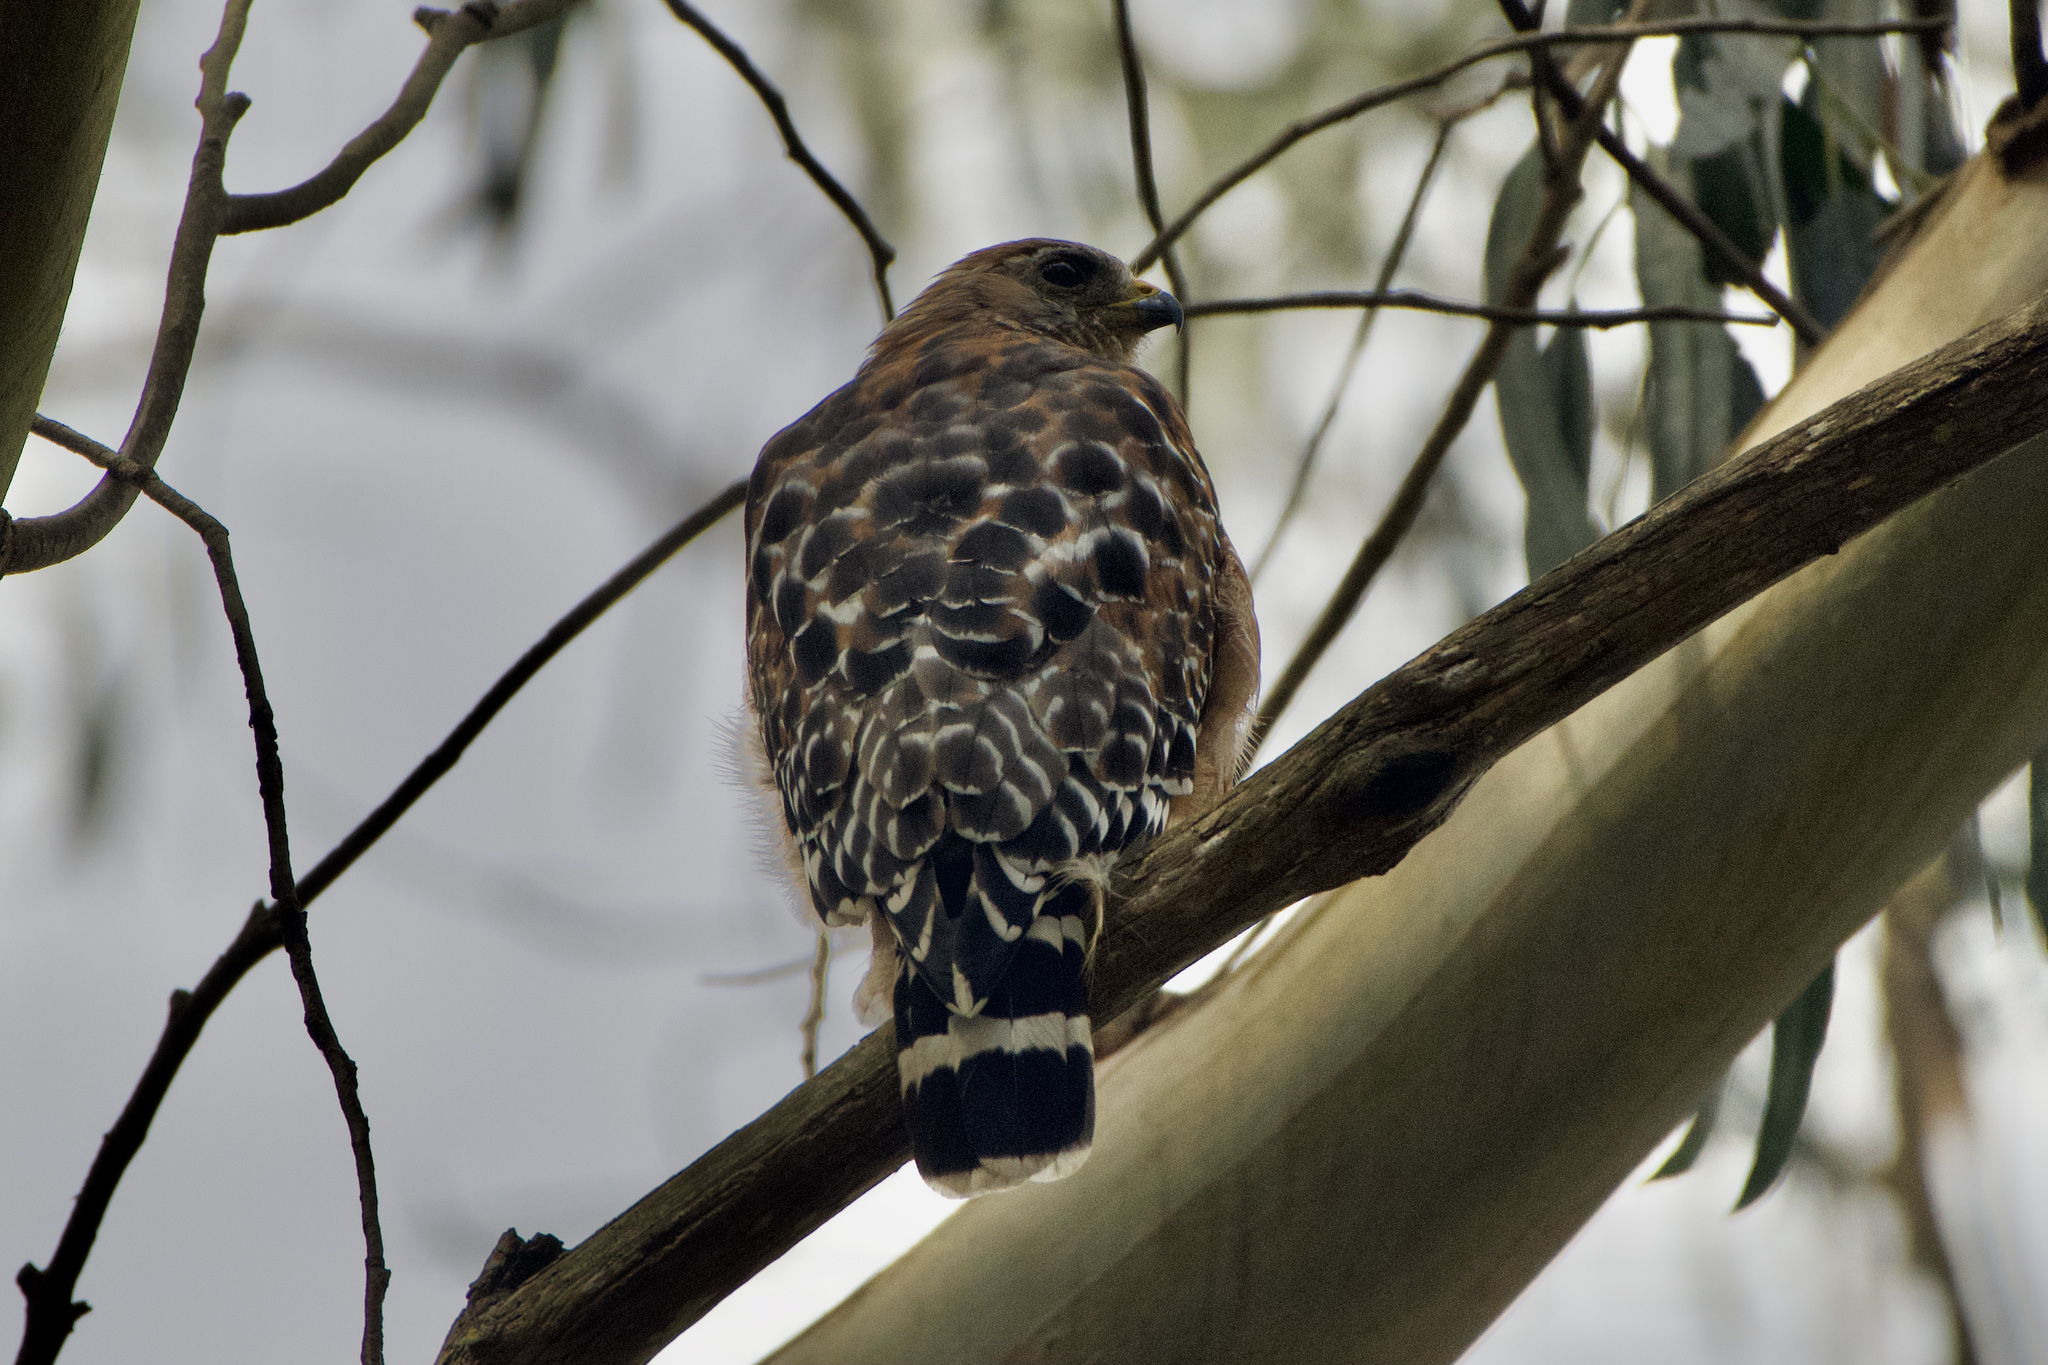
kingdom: Animalia
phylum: Chordata
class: Aves
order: Accipitriformes
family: Accipitridae
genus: Buteo
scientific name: Buteo lineatus
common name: Red-shouldered hawk
